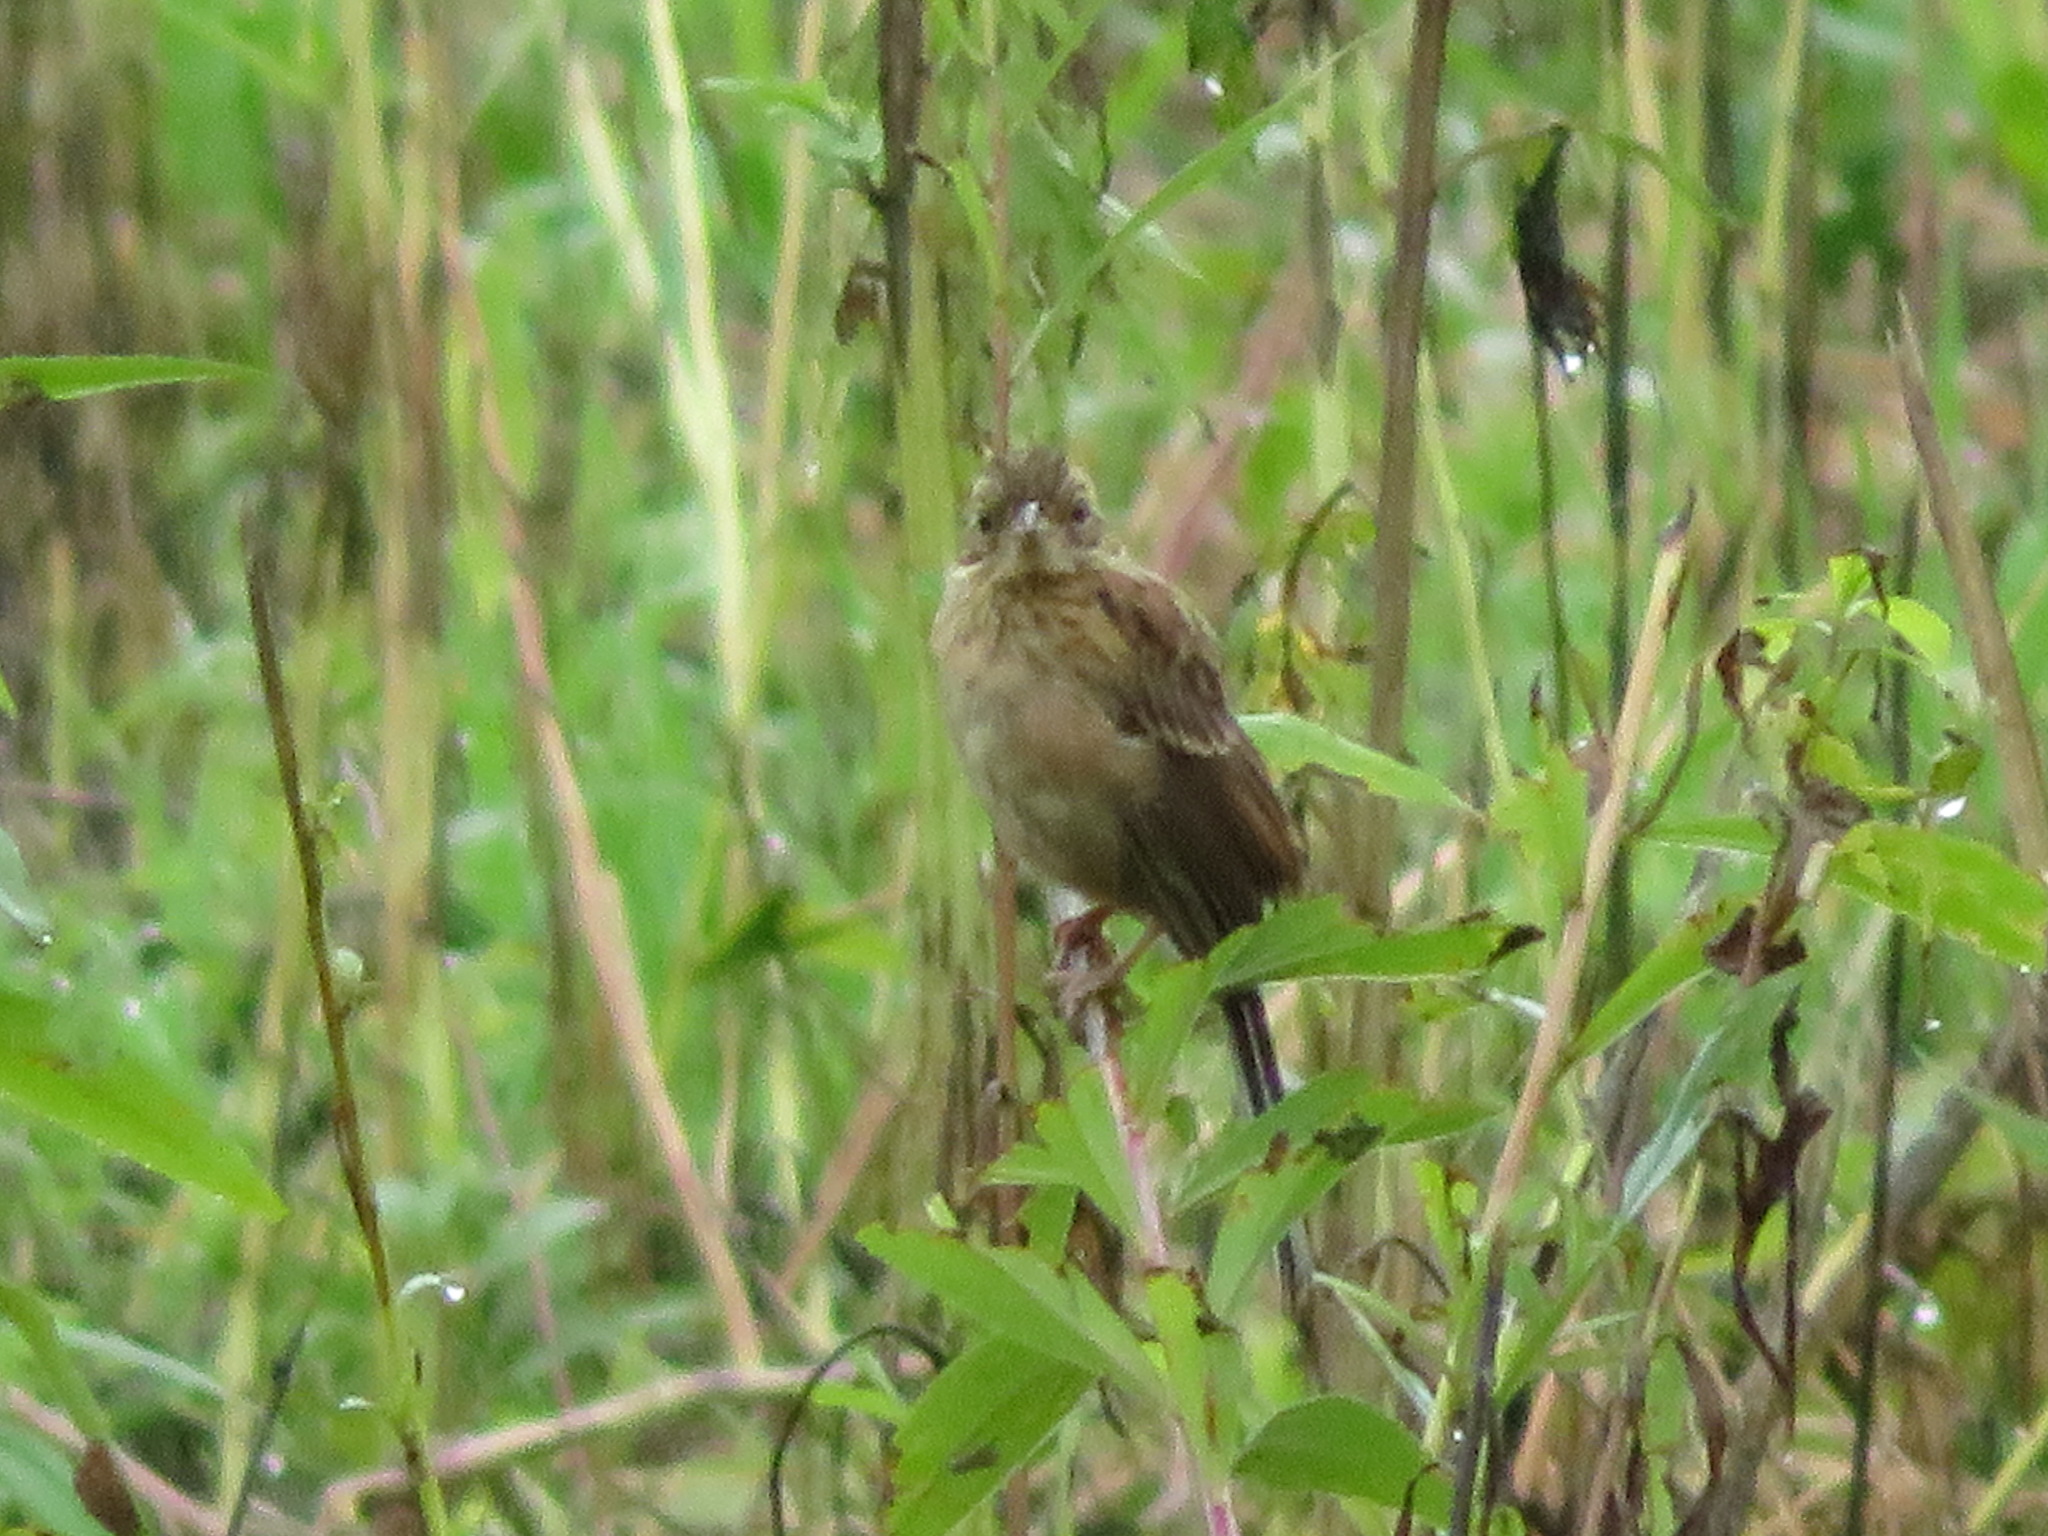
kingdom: Animalia
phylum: Chordata
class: Aves
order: Passeriformes
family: Emberizidae
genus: Emberiza
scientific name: Emberiza cioides
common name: Meadow bunting
